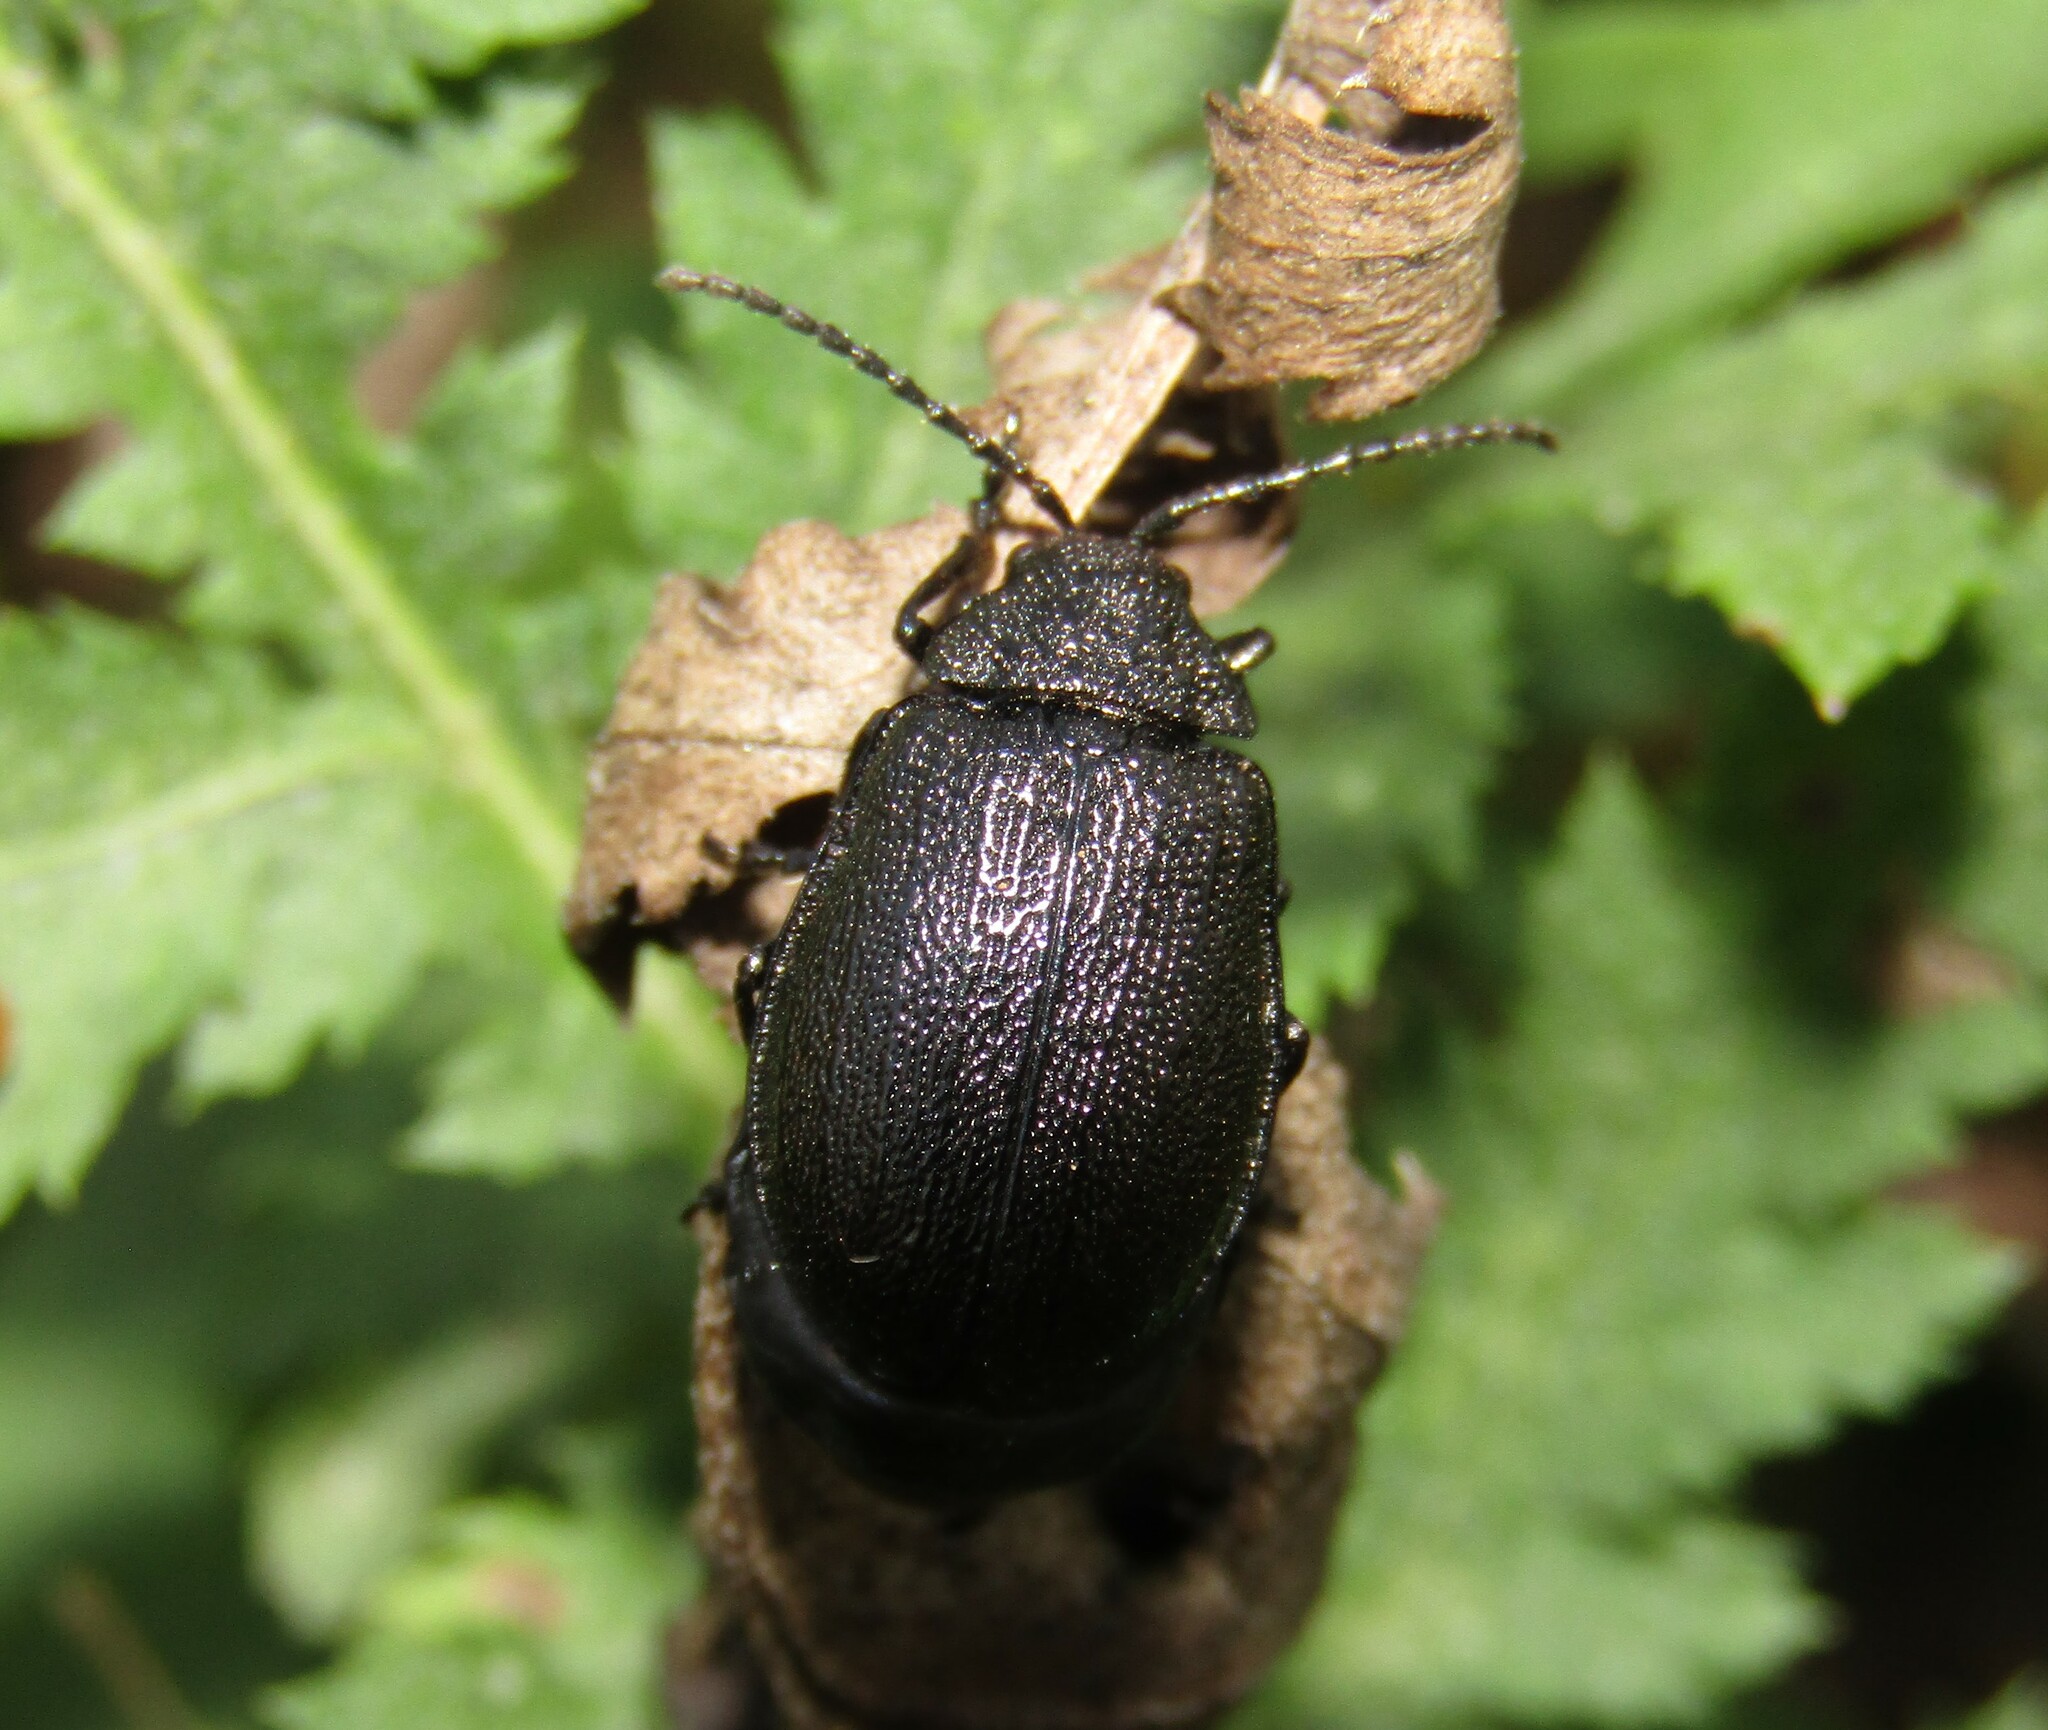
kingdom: Animalia
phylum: Arthropoda
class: Insecta
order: Coleoptera
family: Chrysomelidae
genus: Galeruca
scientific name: Galeruca tanaceti
